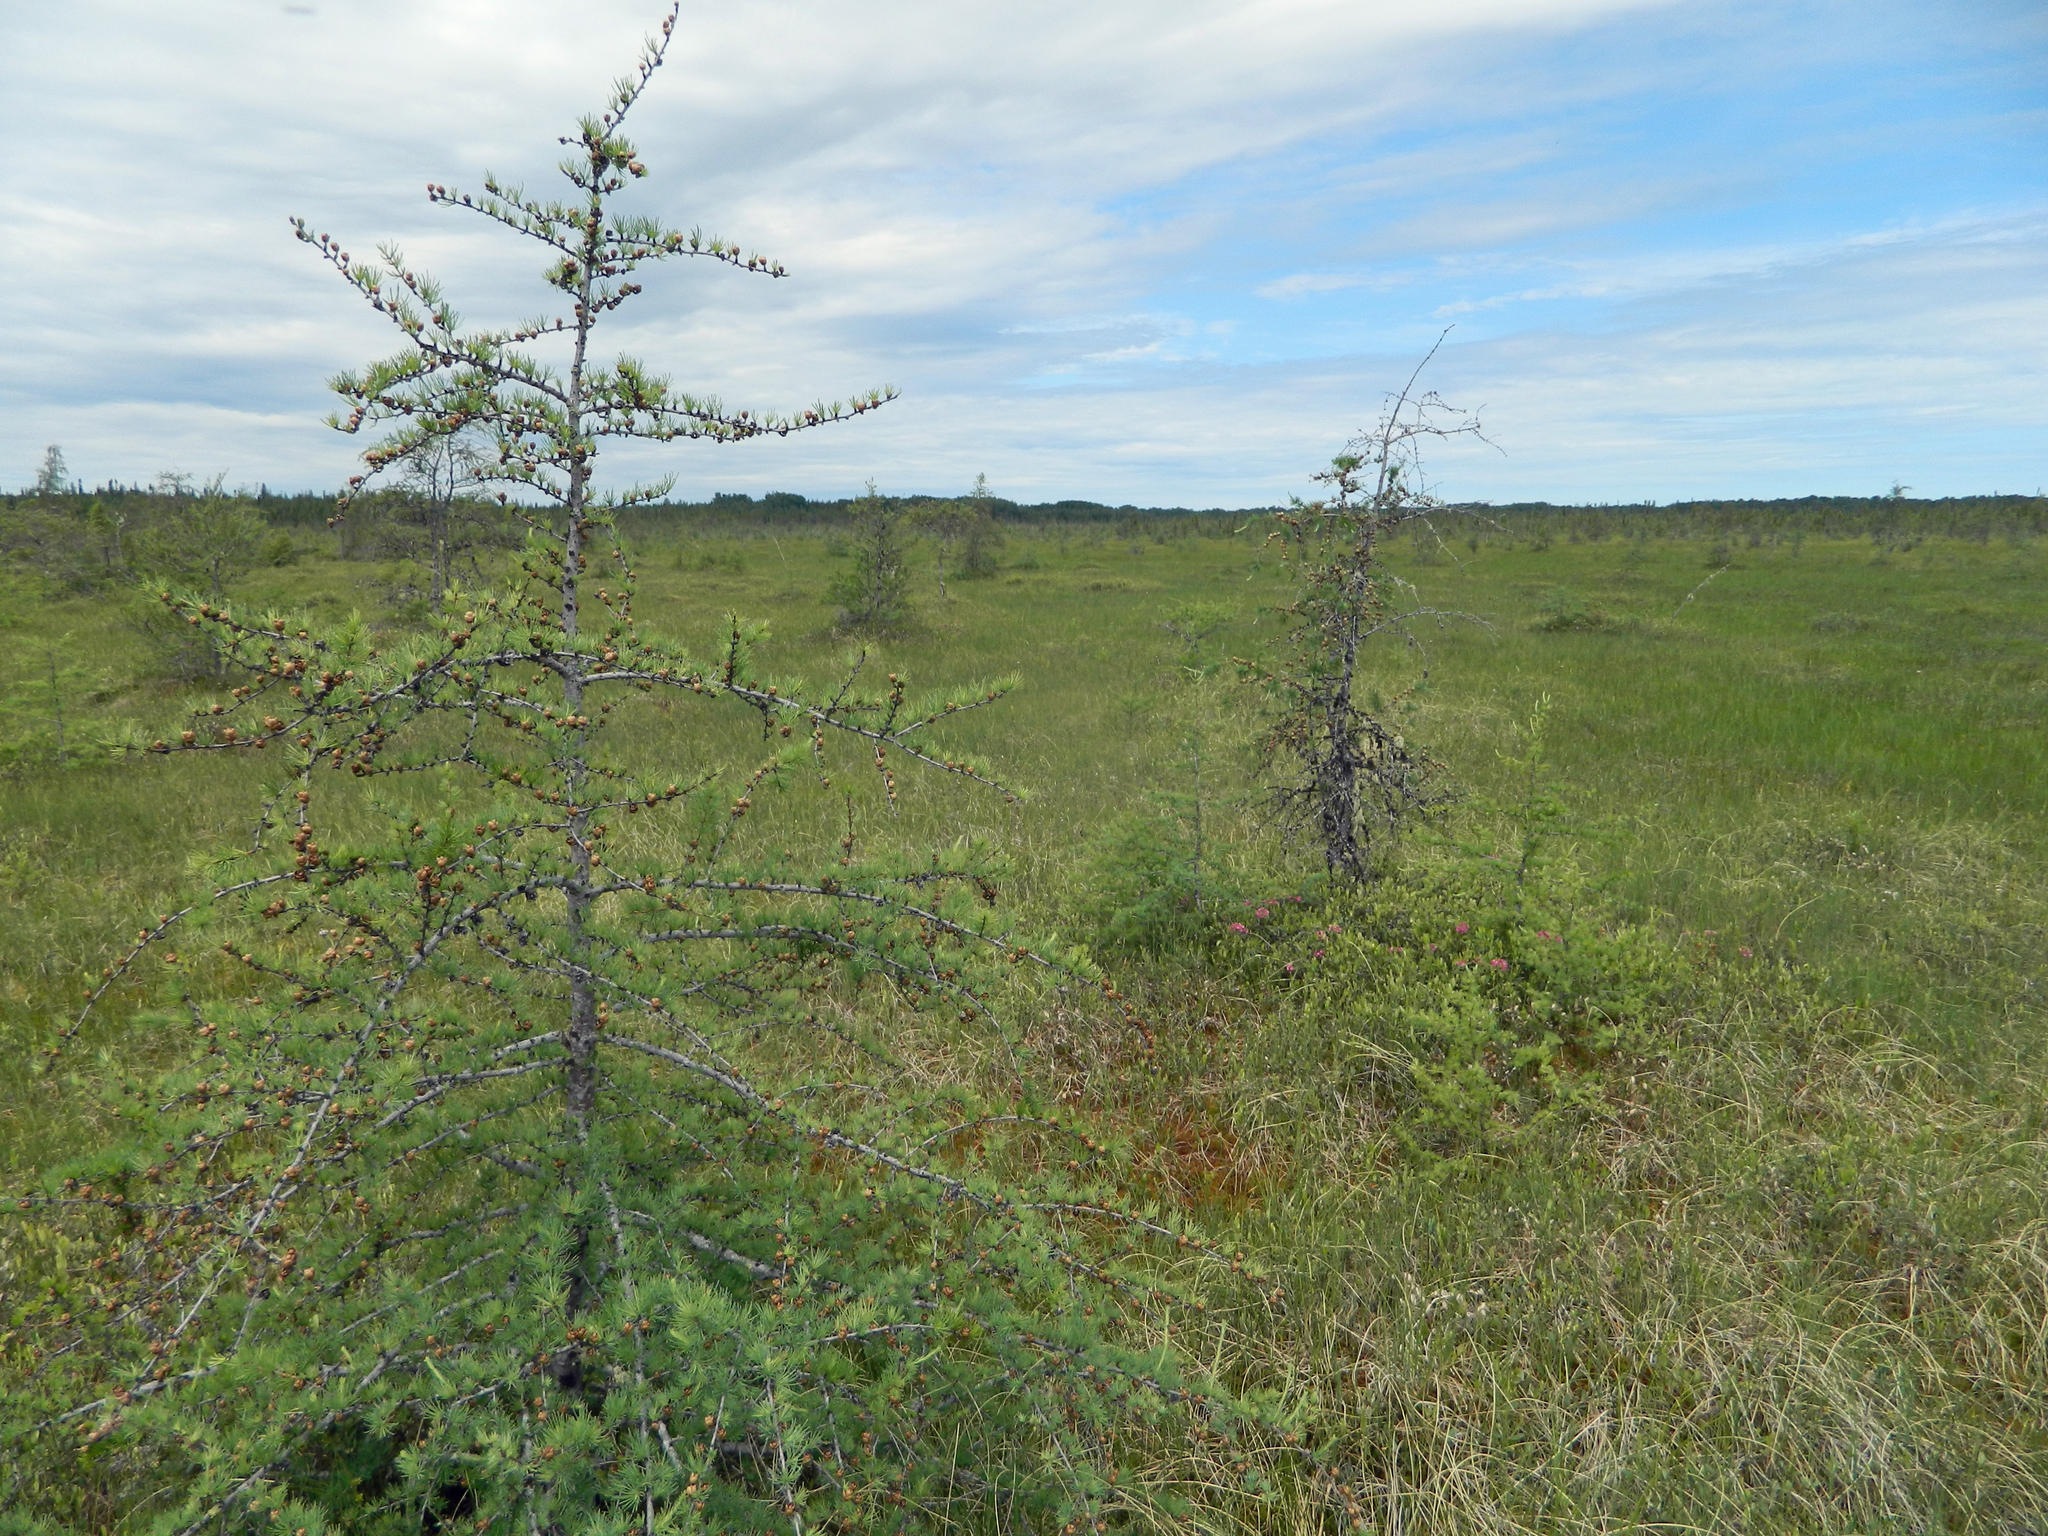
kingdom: Plantae
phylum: Tracheophyta
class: Pinopsida
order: Pinales
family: Pinaceae
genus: Larix
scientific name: Larix laricina
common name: American larch
